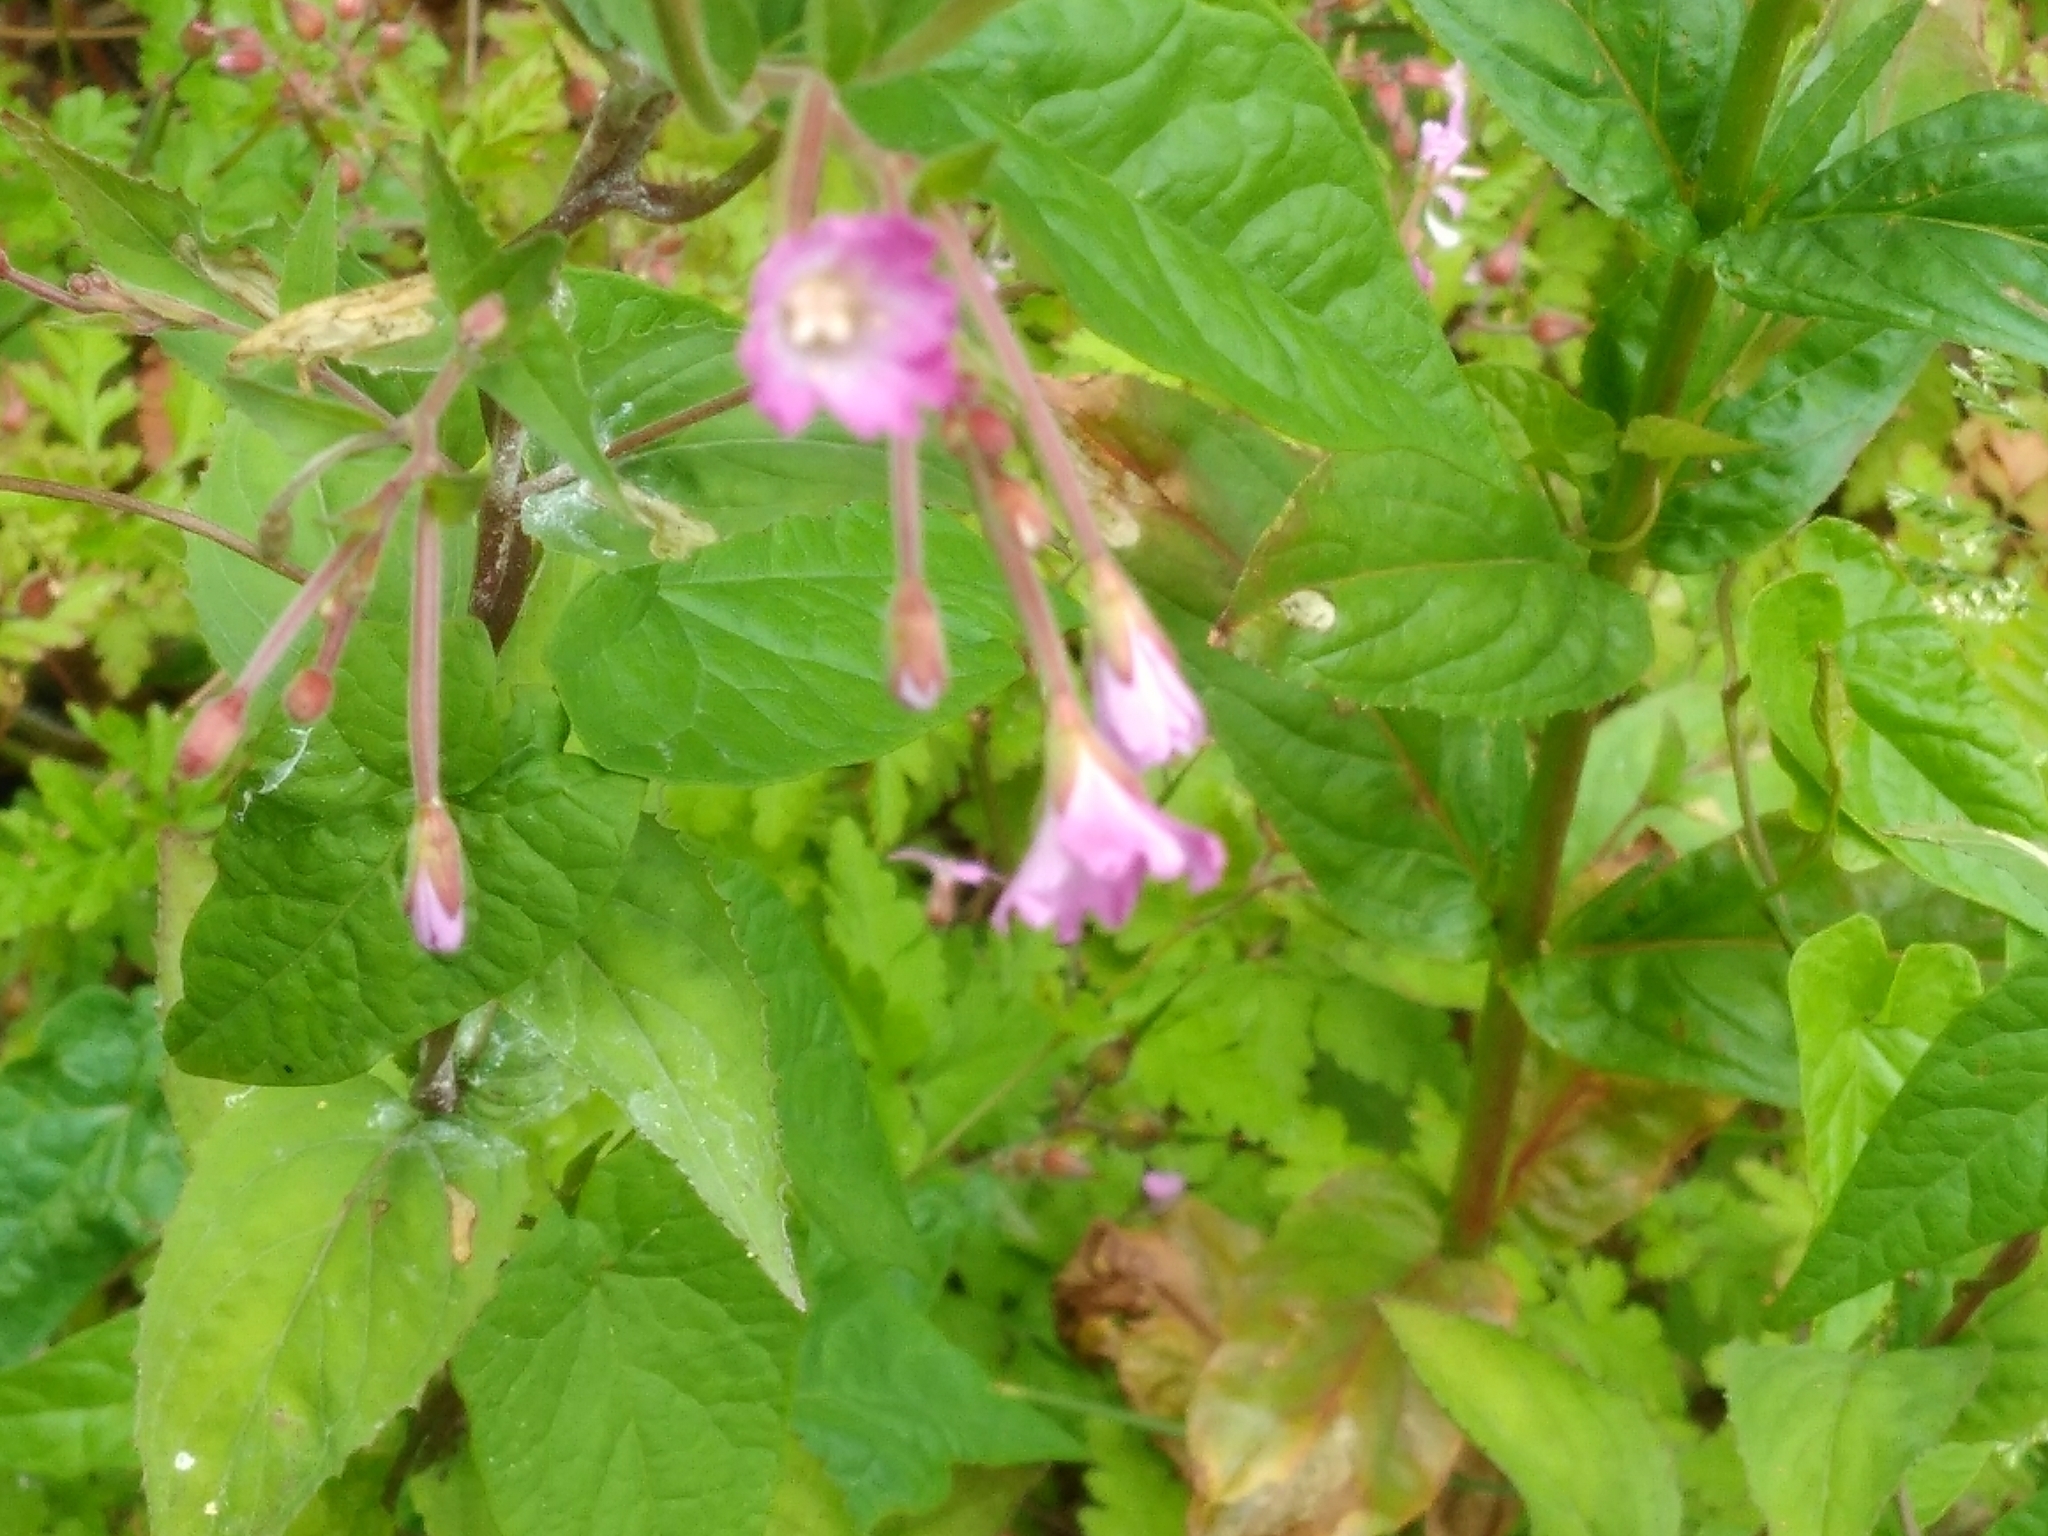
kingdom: Plantae
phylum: Tracheophyta
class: Magnoliopsida
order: Myrtales
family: Onagraceae
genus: Epilobium
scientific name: Epilobium montanum
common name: Broad-leaved willowherb
